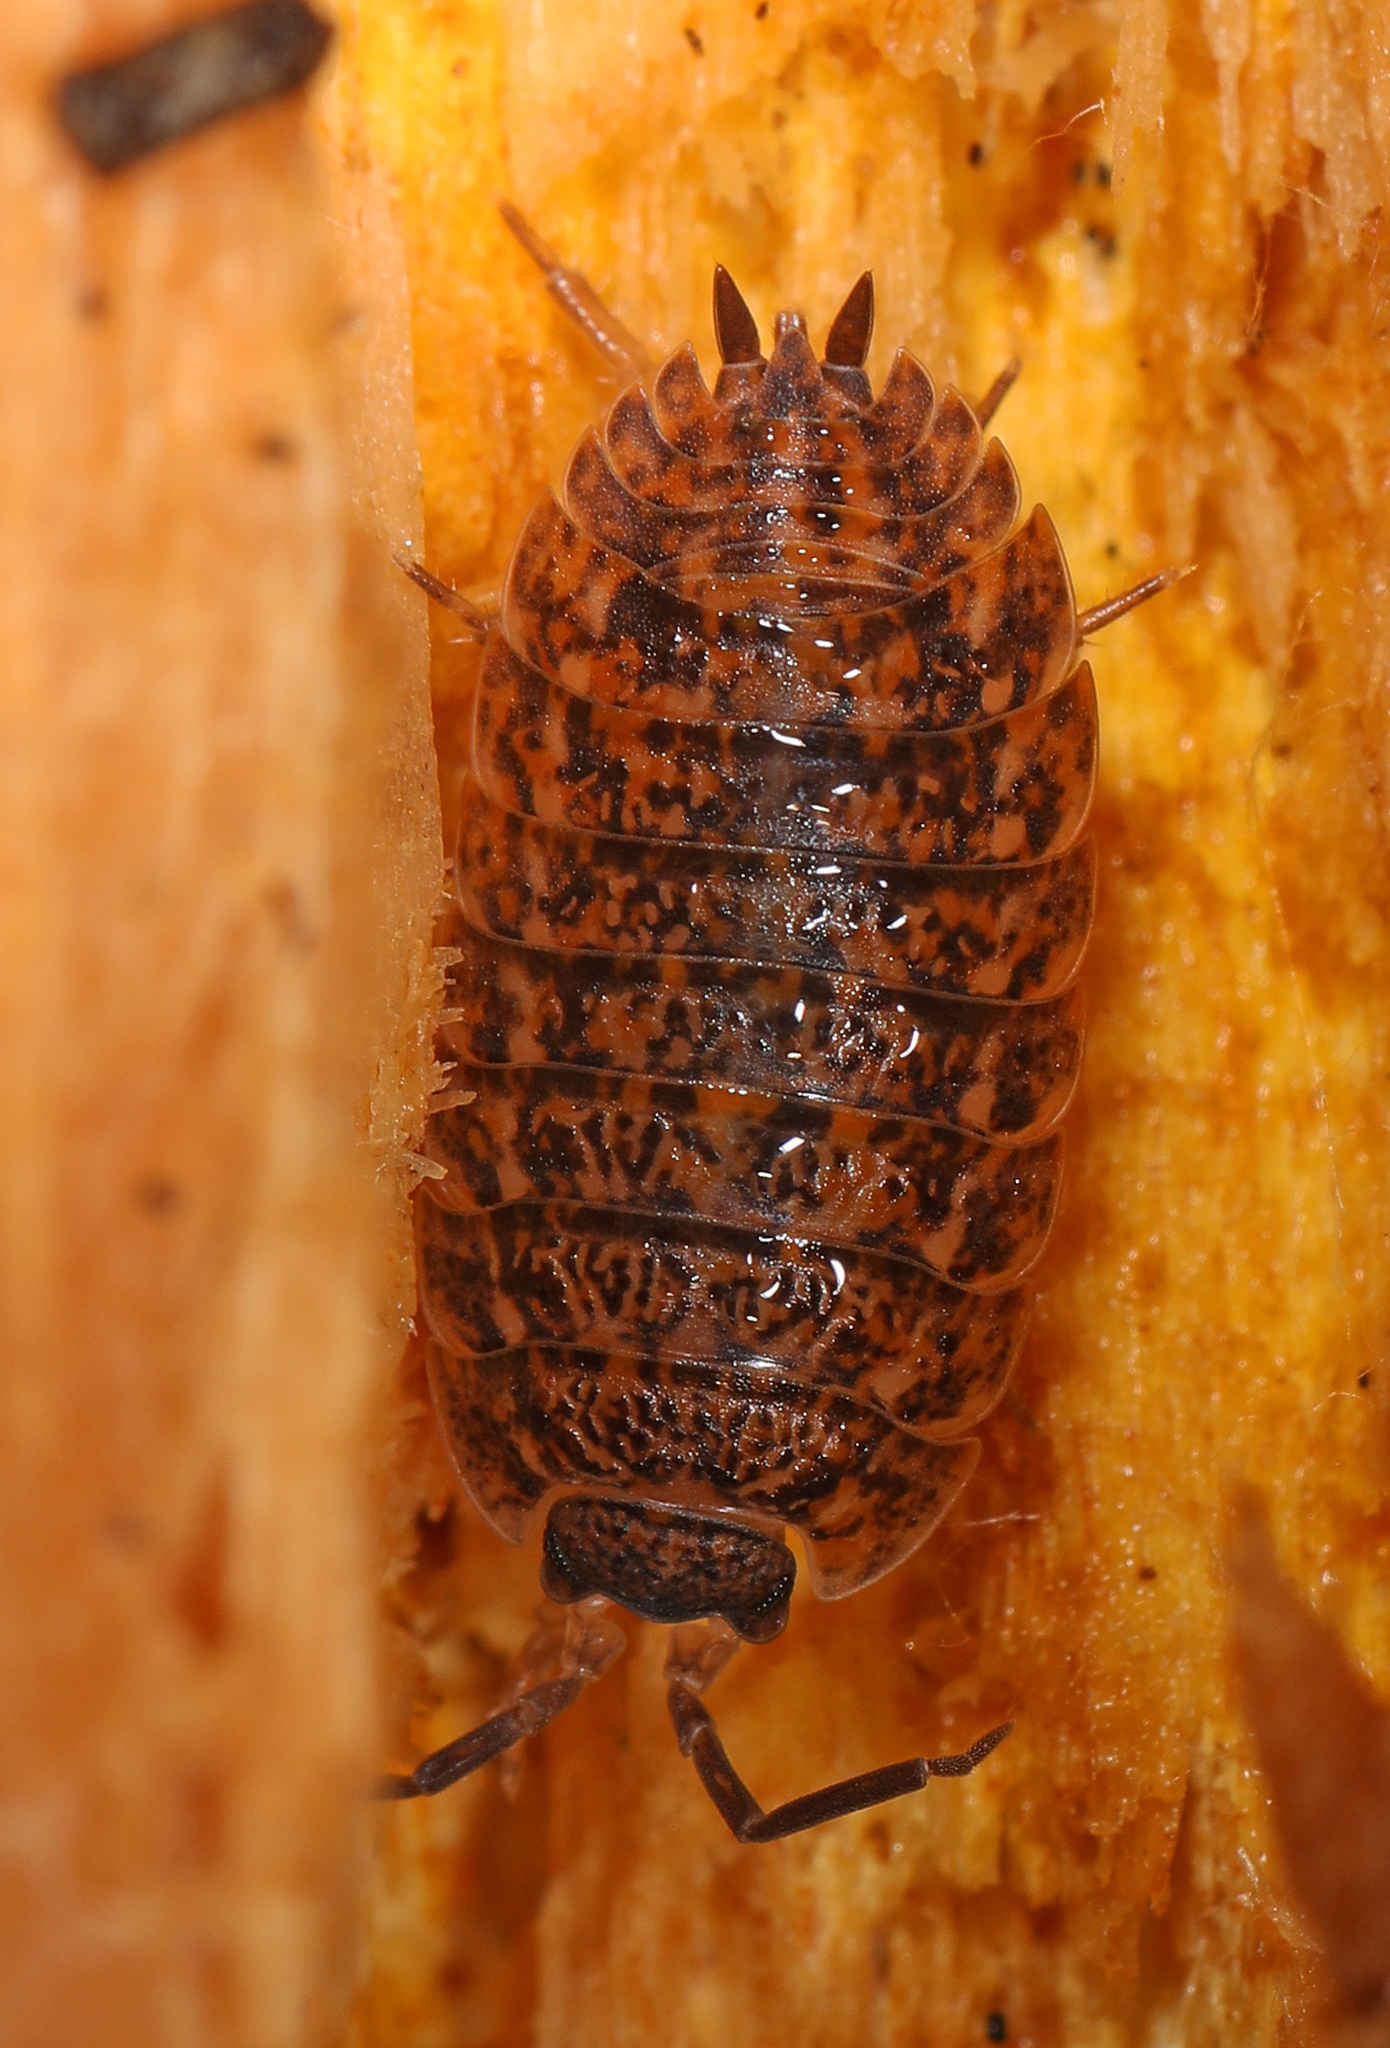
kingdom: Animalia
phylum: Arthropoda
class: Malacostraca
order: Isopoda
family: Trachelipodidae
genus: Trachelipus
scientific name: Trachelipus rathkii
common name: Isopod
